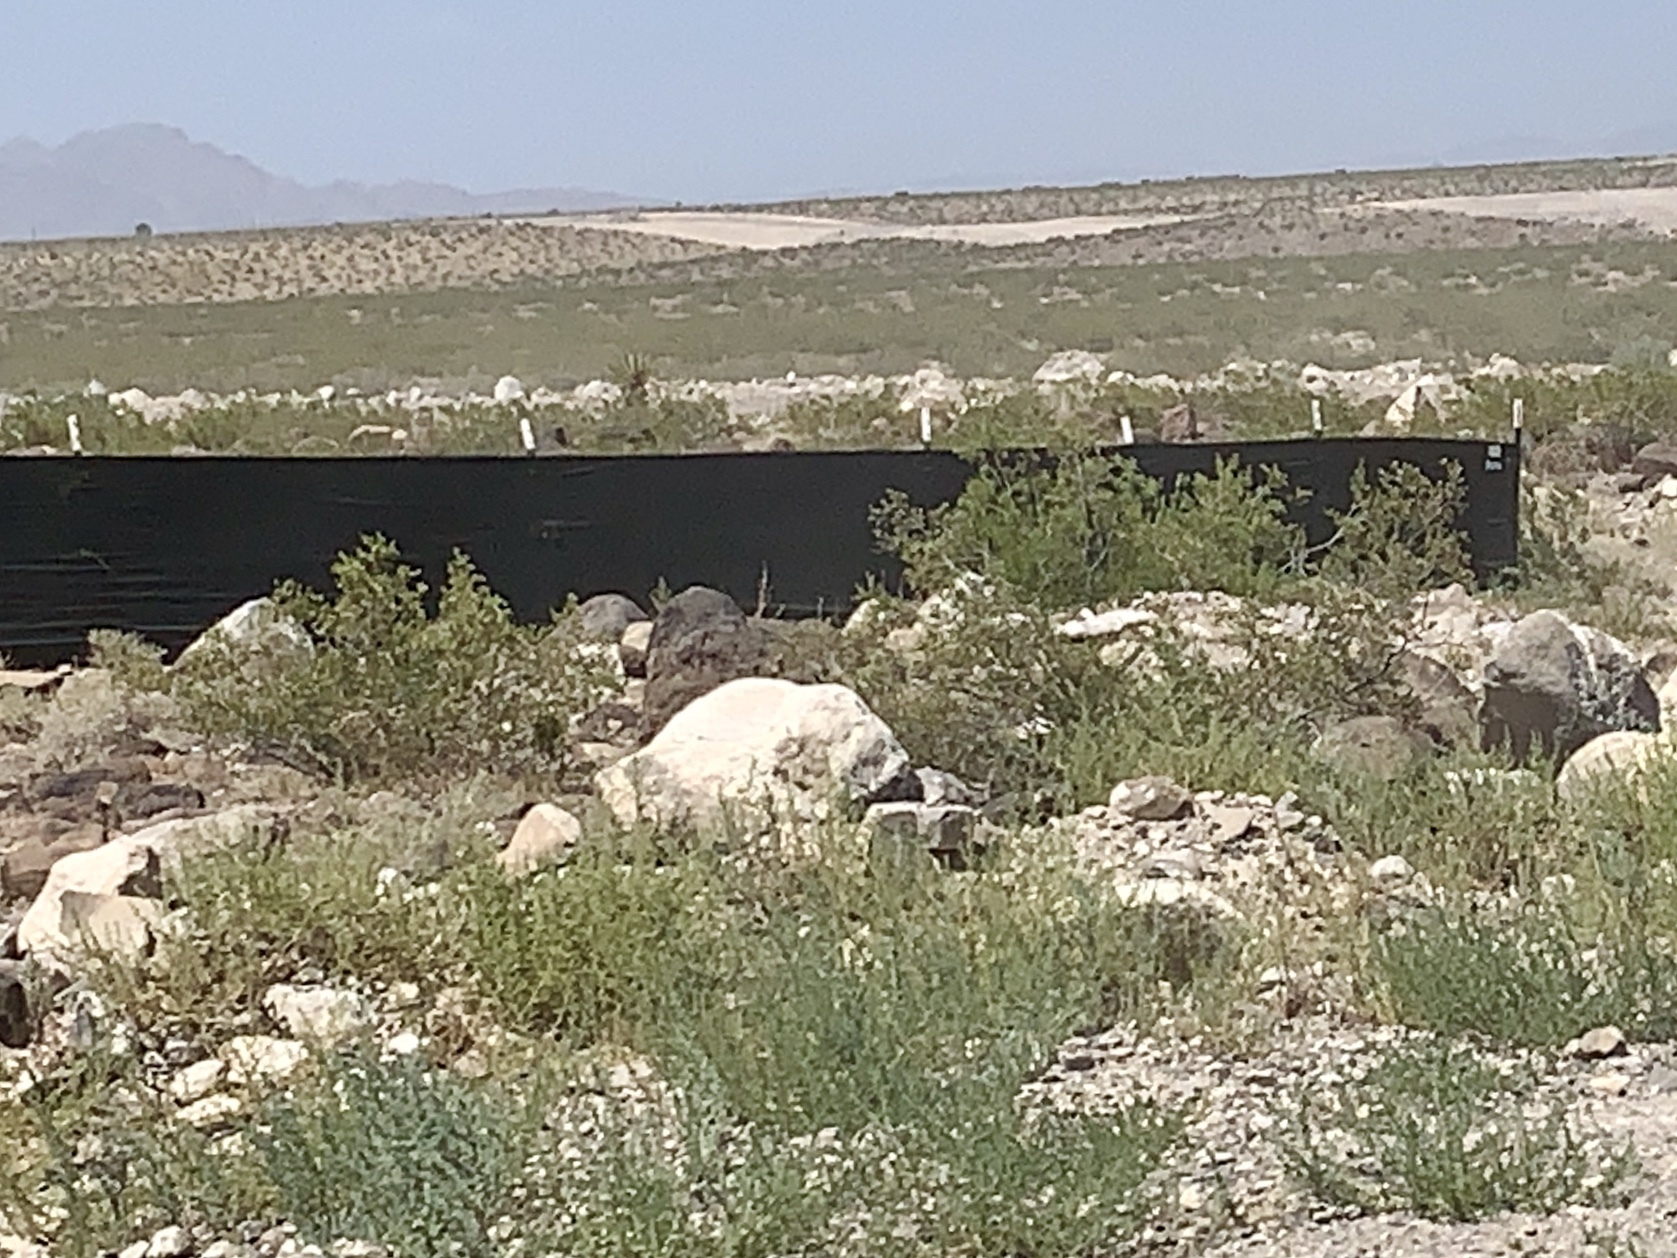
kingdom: Plantae
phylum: Tracheophyta
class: Magnoliopsida
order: Zygophyllales
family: Zygophyllaceae
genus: Larrea
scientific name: Larrea tridentata
